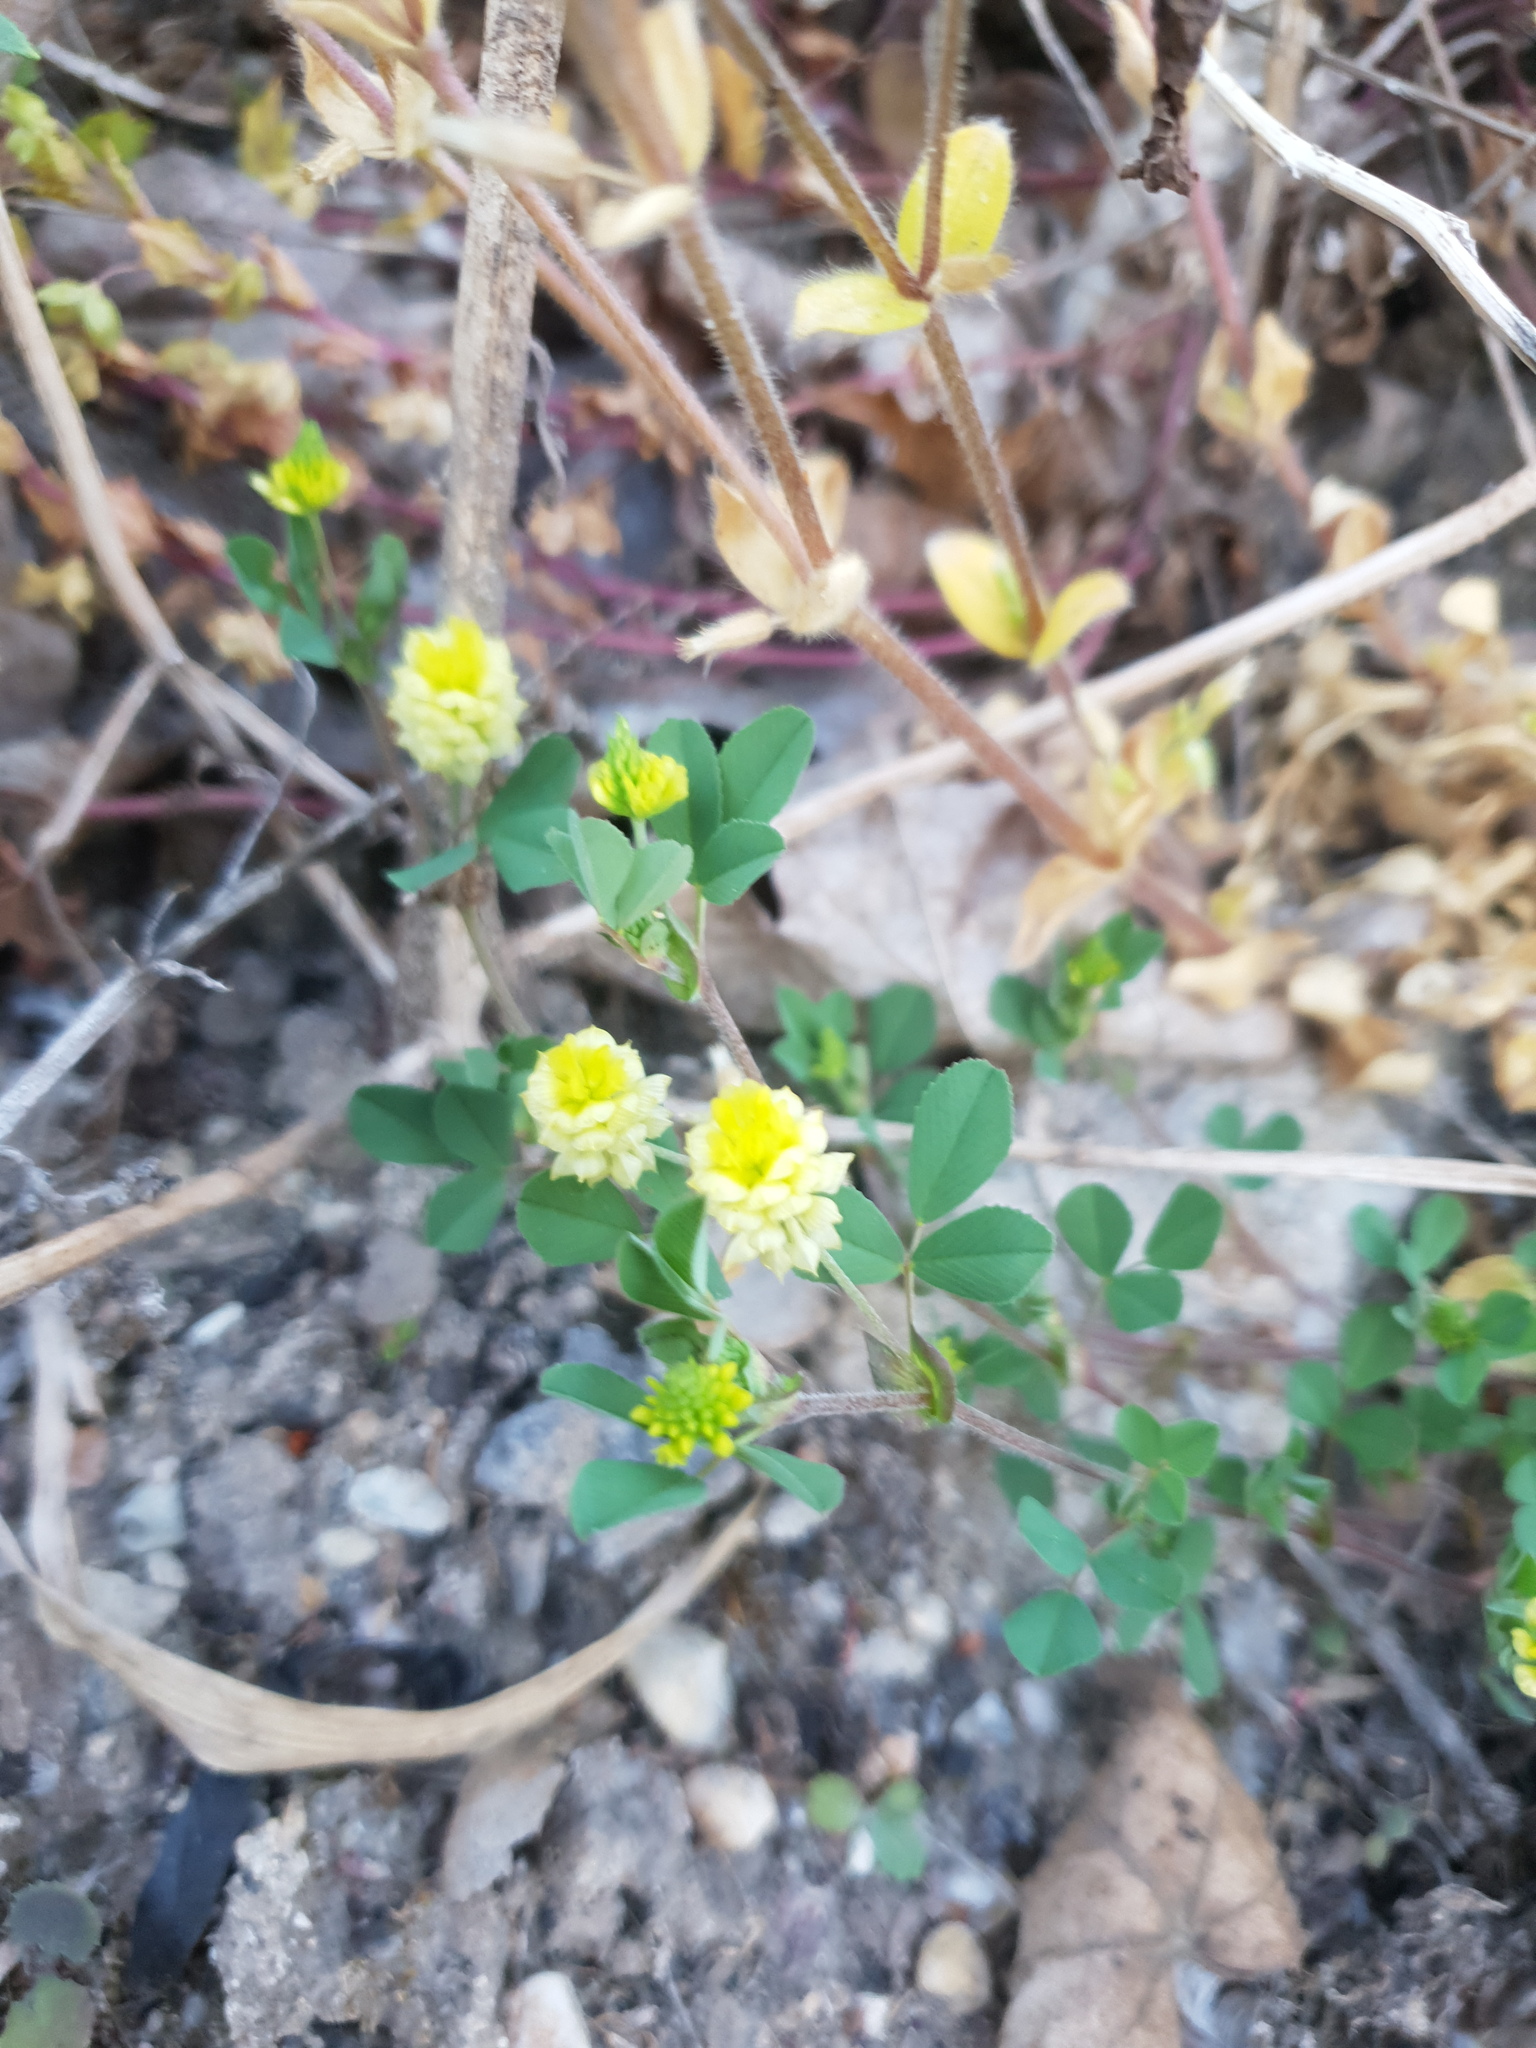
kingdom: Plantae
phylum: Tracheophyta
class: Magnoliopsida
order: Fabales
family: Fabaceae
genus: Trifolium
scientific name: Trifolium campestre
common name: Field clover
